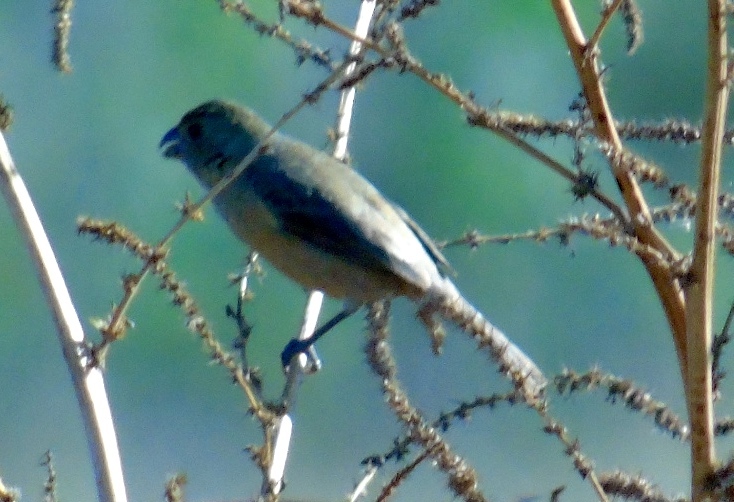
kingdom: Animalia
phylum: Chordata
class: Aves
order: Passeriformes
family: Thraupidae
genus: Sporophila
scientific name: Sporophila torqueola
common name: White-collared seedeater
